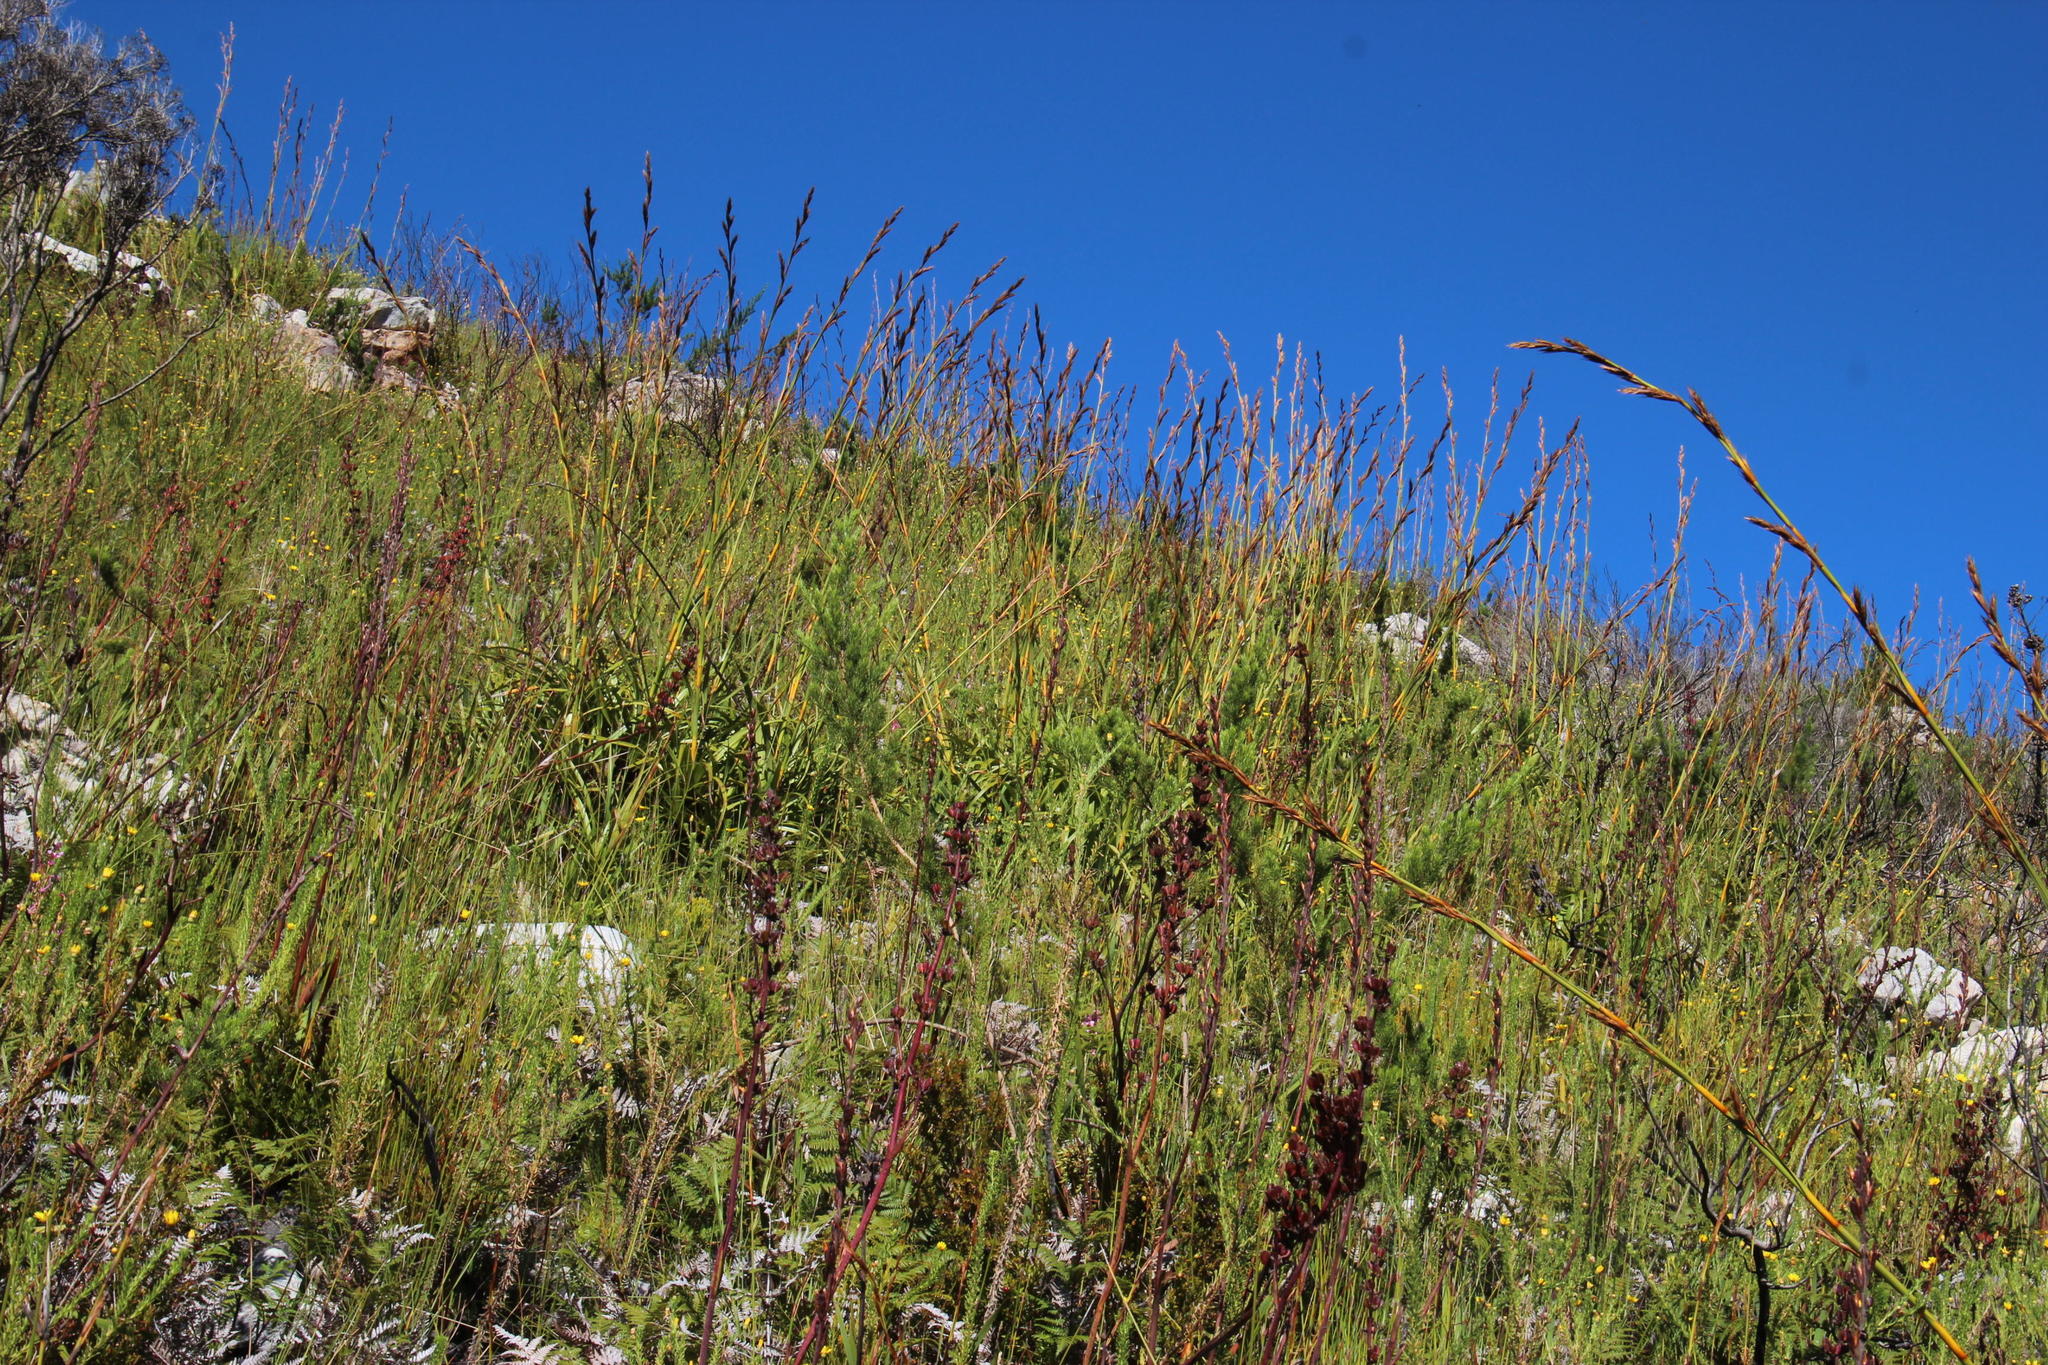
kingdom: Plantae
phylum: Tracheophyta
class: Liliopsida
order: Poales
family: Cyperaceae
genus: Tetraria
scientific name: Tetraria thermalis
